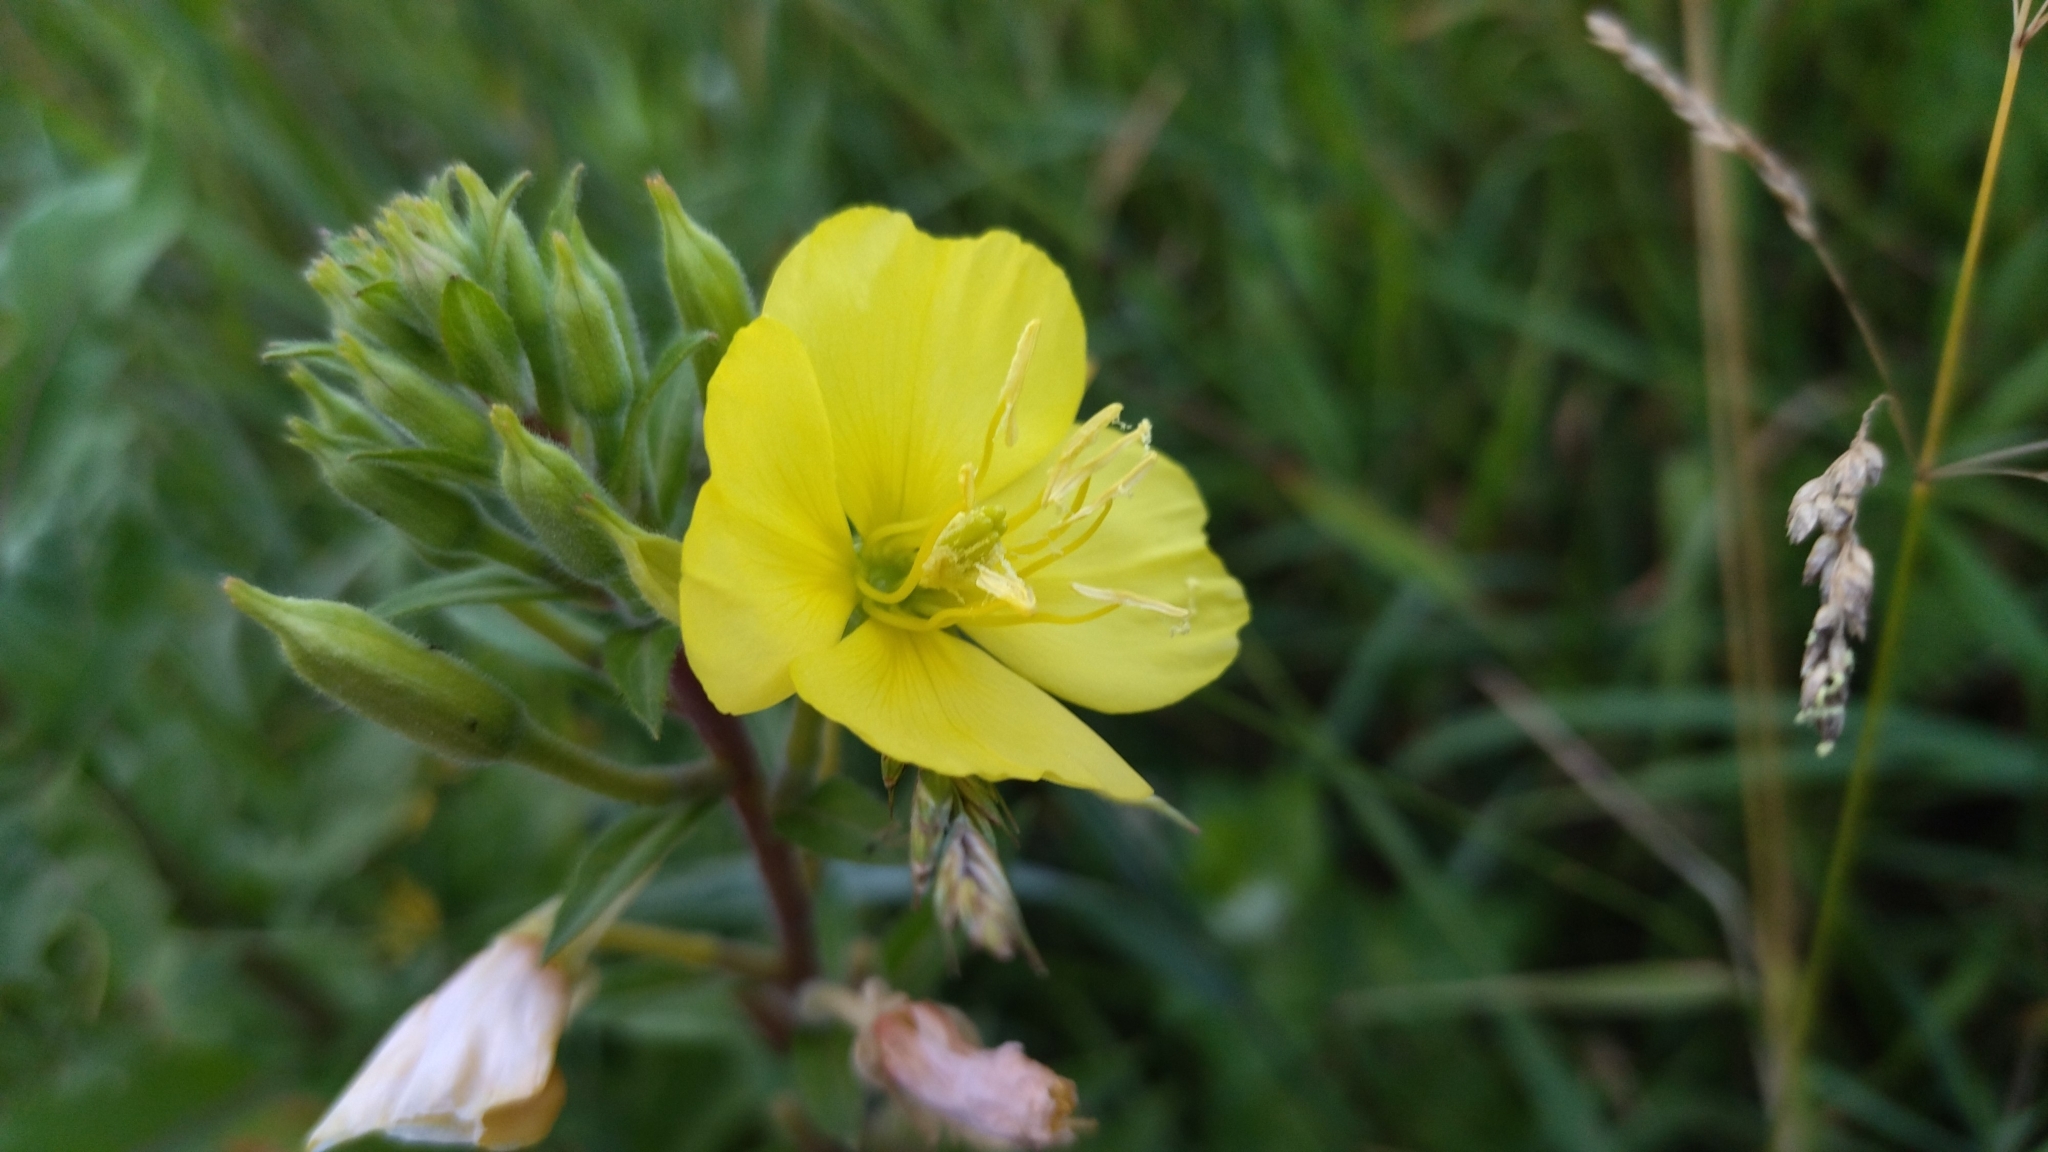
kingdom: Plantae
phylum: Tracheophyta
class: Magnoliopsida
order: Myrtales
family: Onagraceae
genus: Oenothera
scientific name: Oenothera rubricaulis
